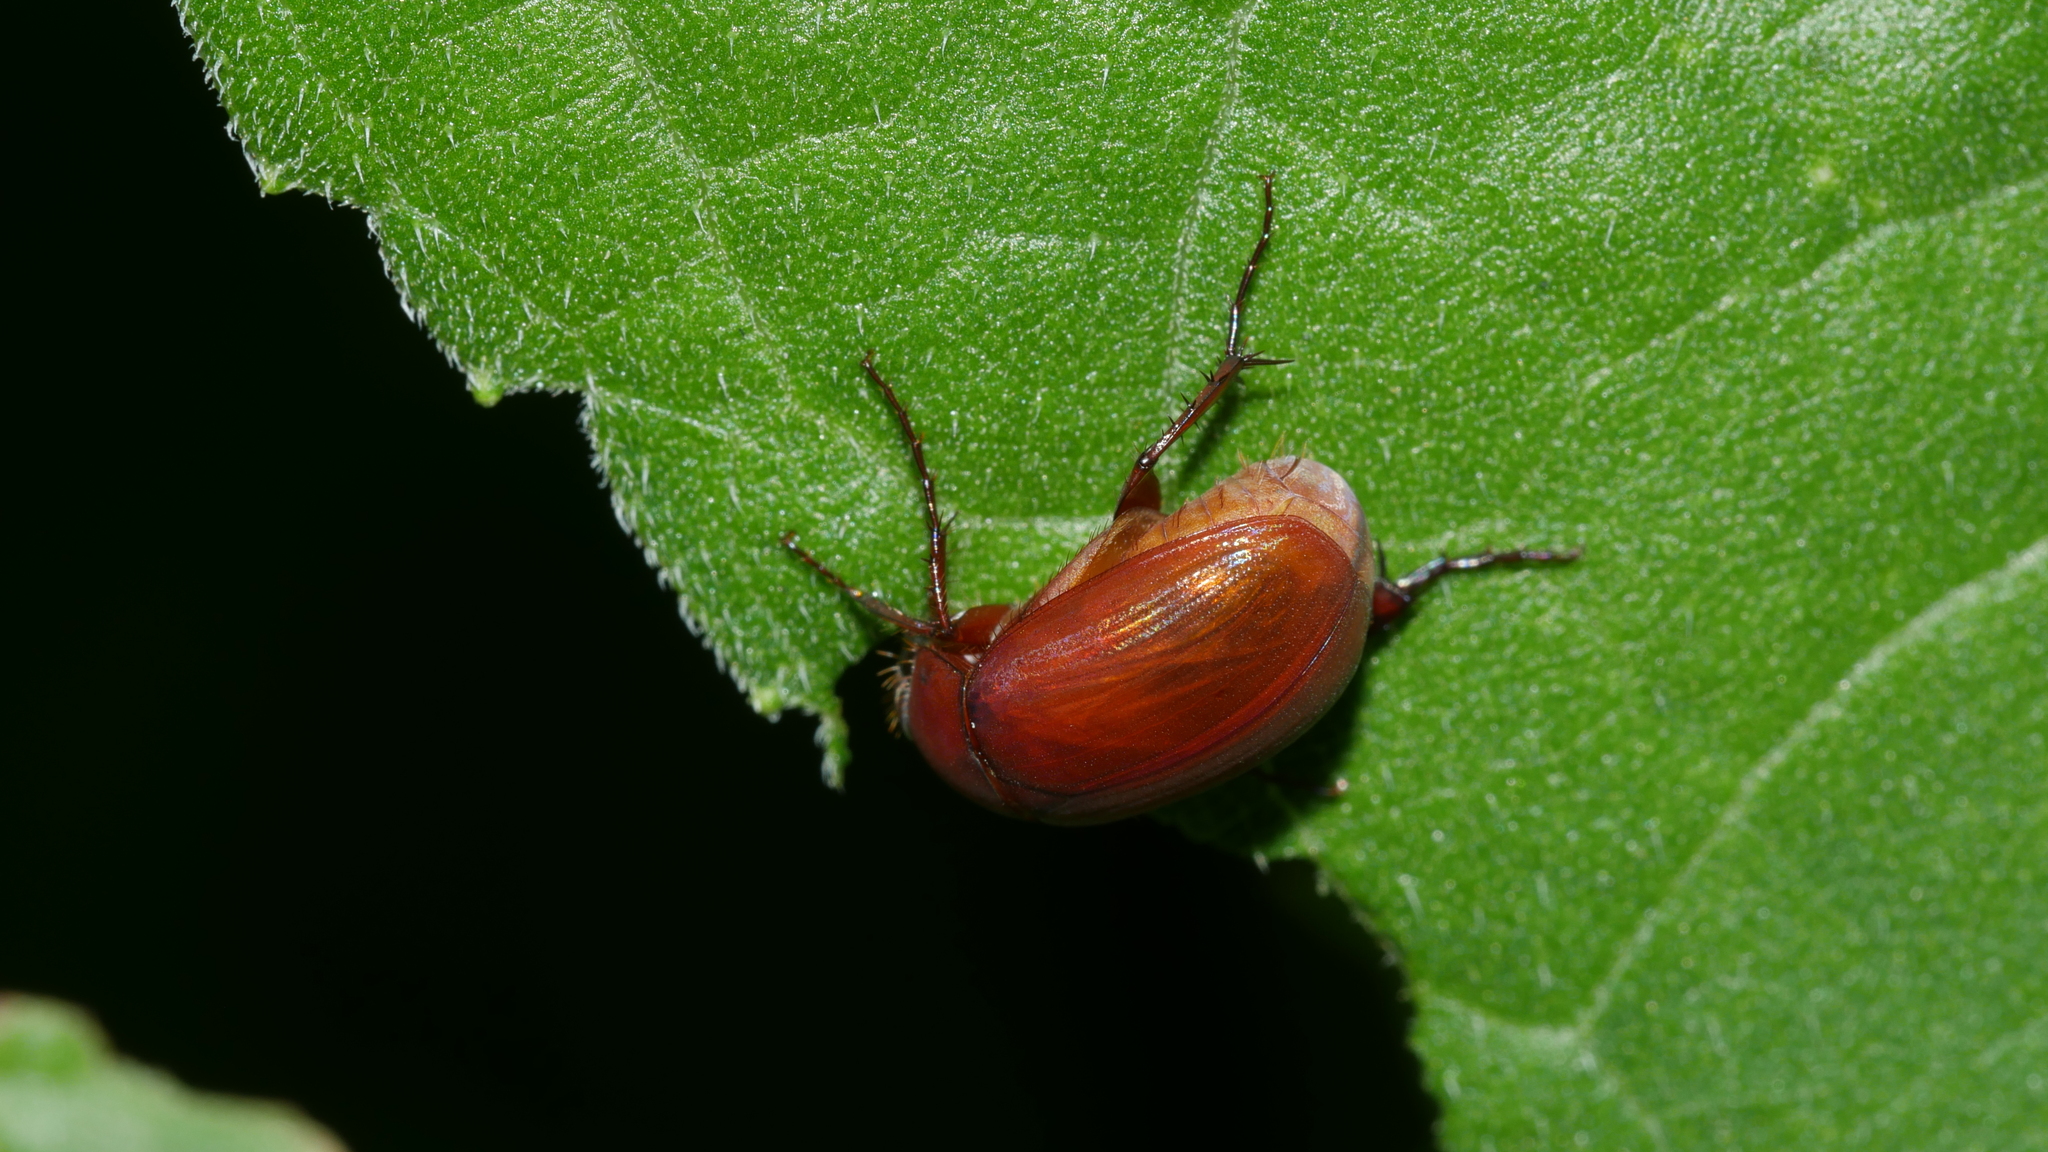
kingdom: Animalia
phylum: Arthropoda
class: Insecta
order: Coleoptera
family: Scarabaeidae
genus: Maladera
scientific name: Maladera formosae
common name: Asiatic garden beetle
